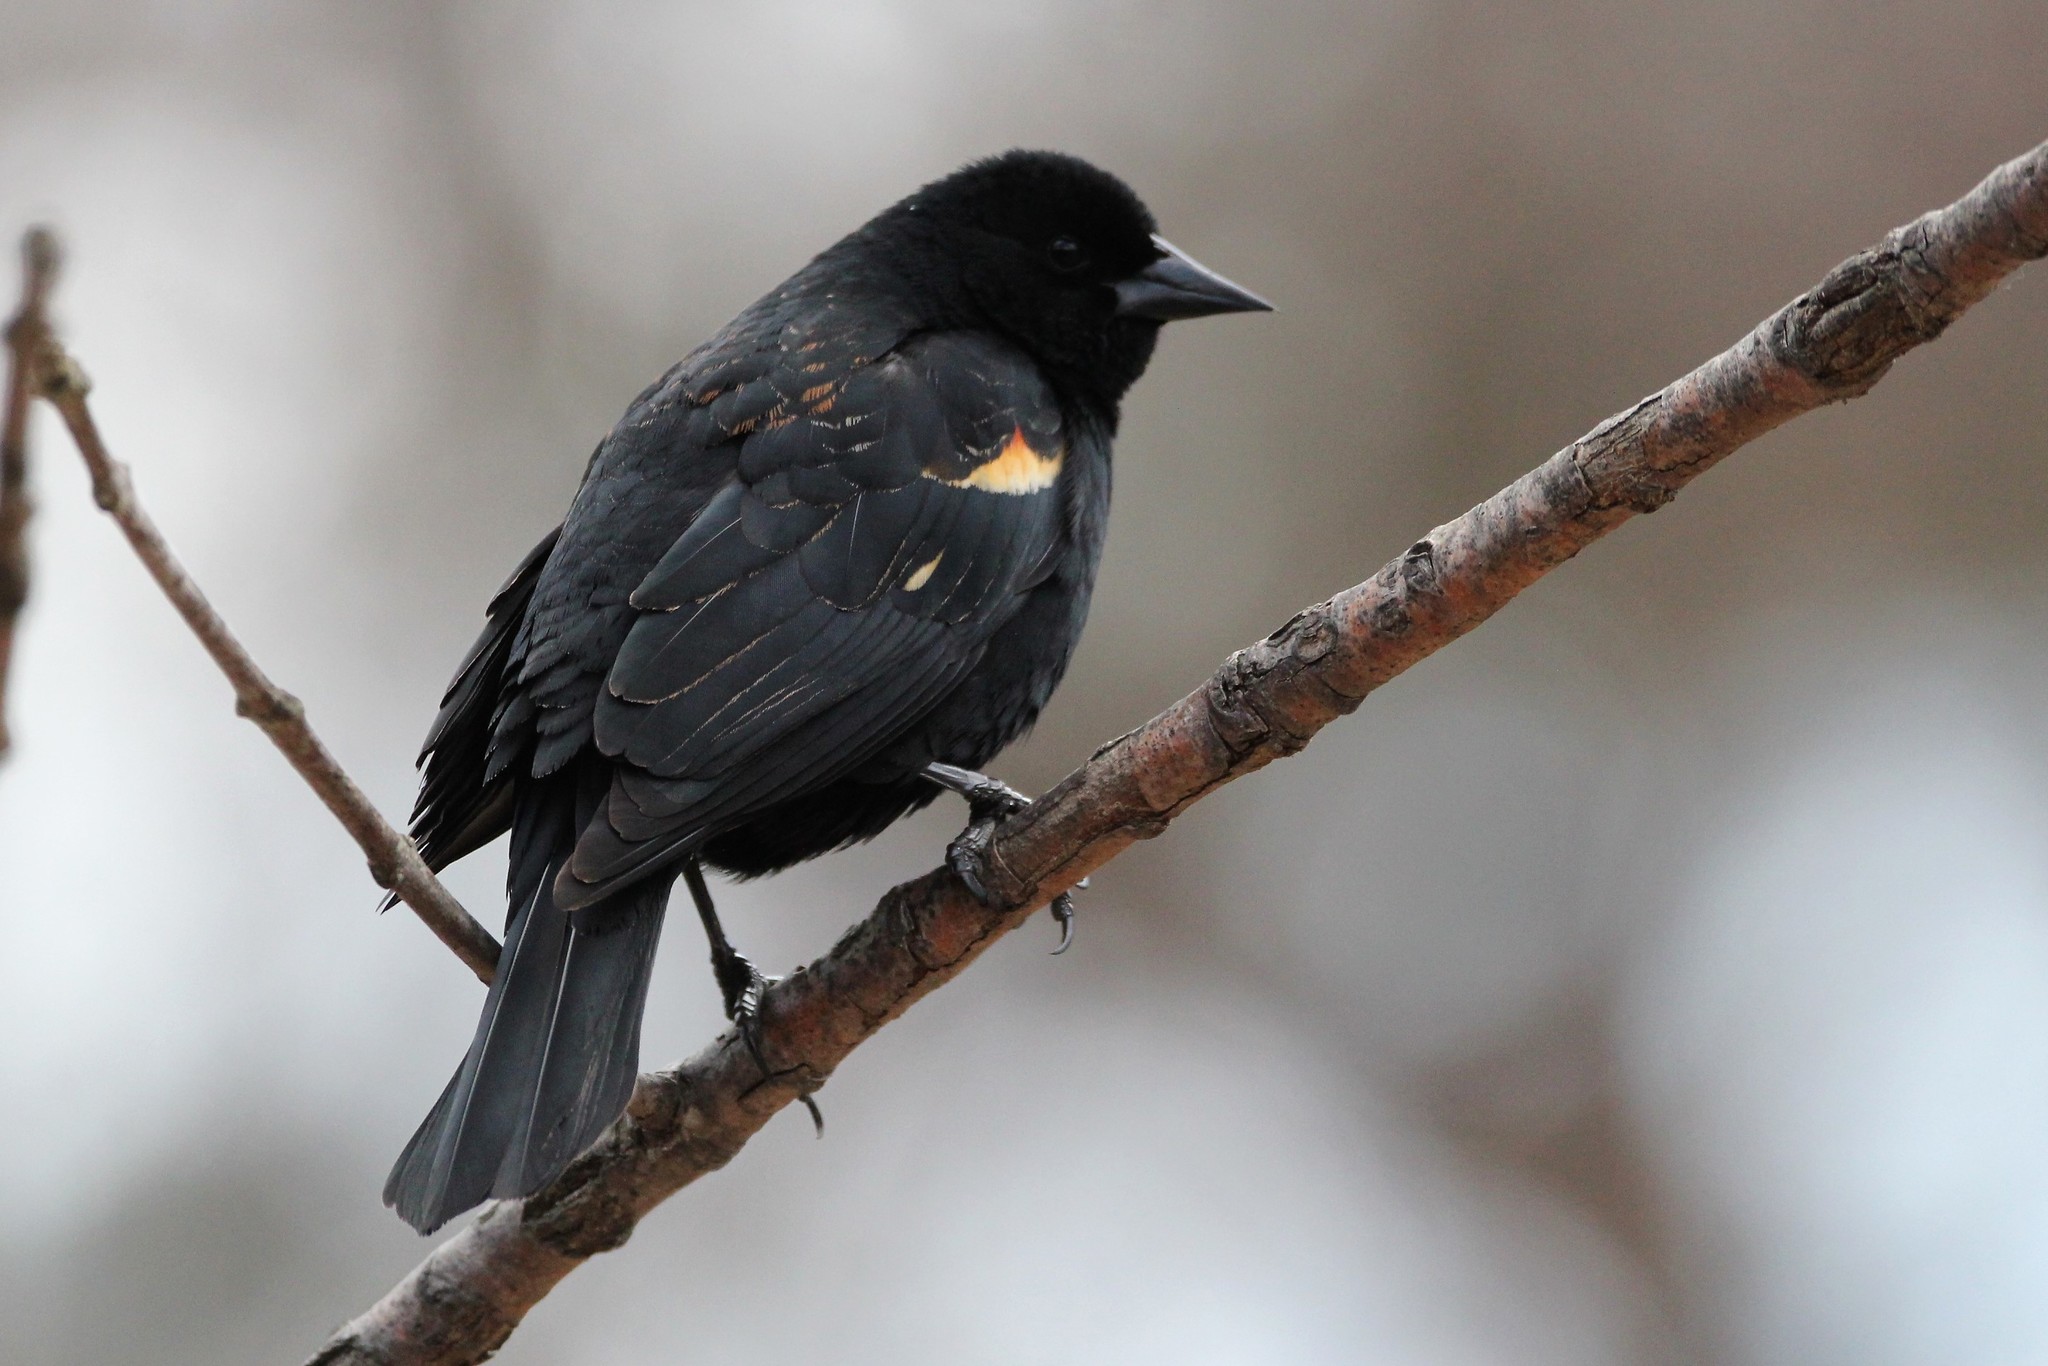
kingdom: Animalia
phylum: Chordata
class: Aves
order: Passeriformes
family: Icteridae
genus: Agelaius
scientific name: Agelaius phoeniceus
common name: Red-winged blackbird
